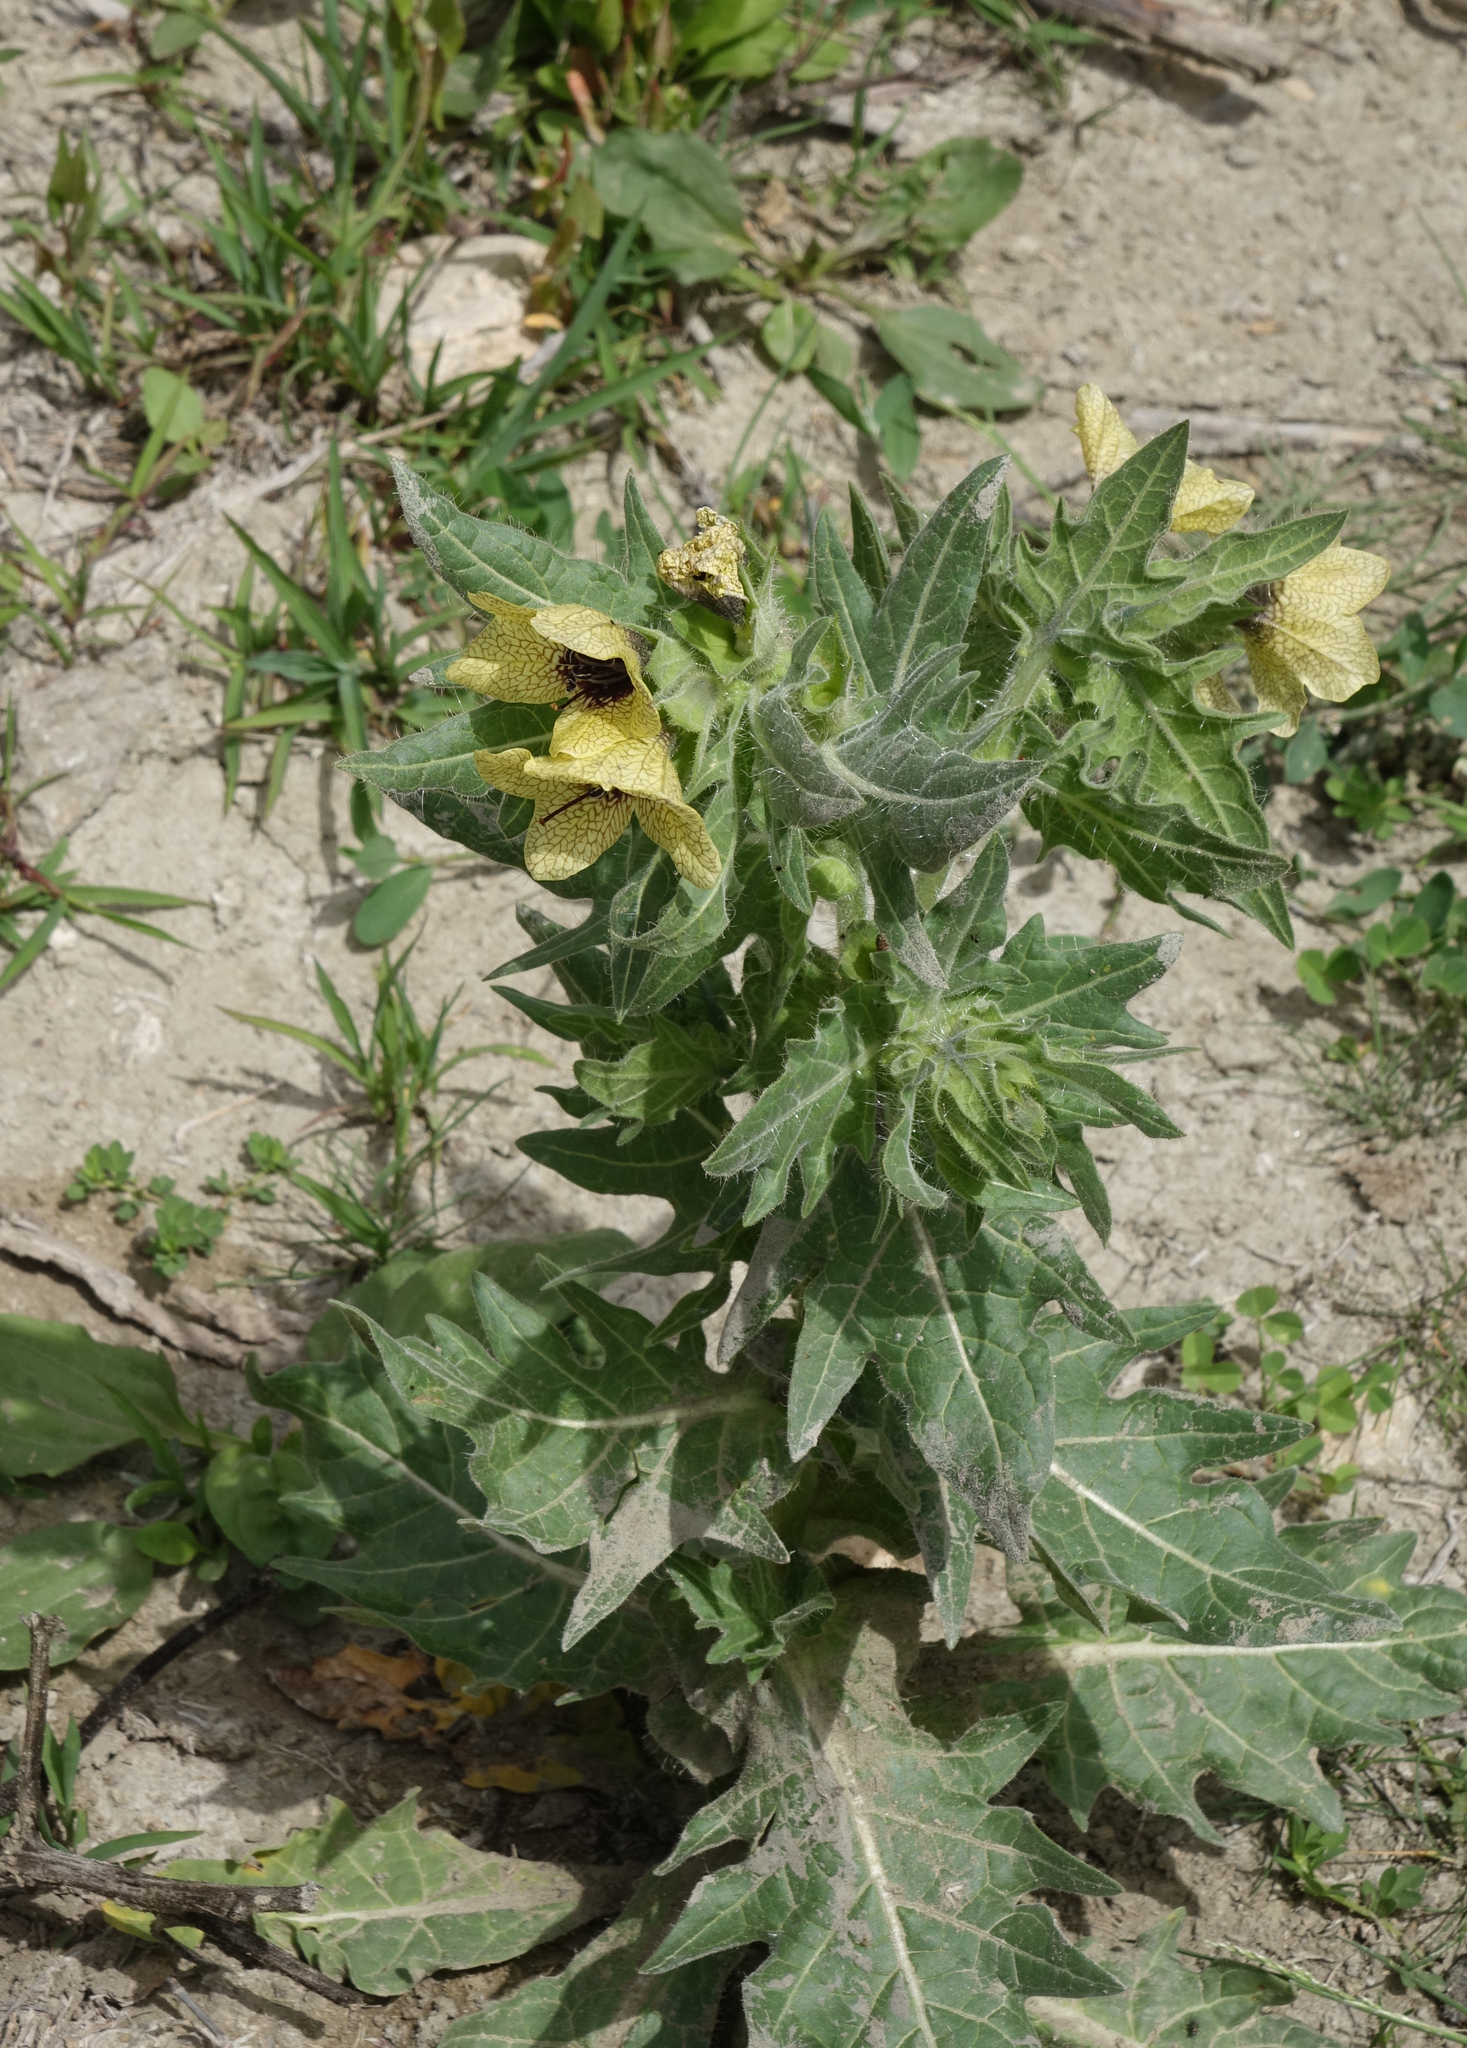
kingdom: Plantae
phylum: Tracheophyta
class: Magnoliopsida
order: Solanales
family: Solanaceae
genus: Hyoscyamus
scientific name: Hyoscyamus niger
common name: Henbane
